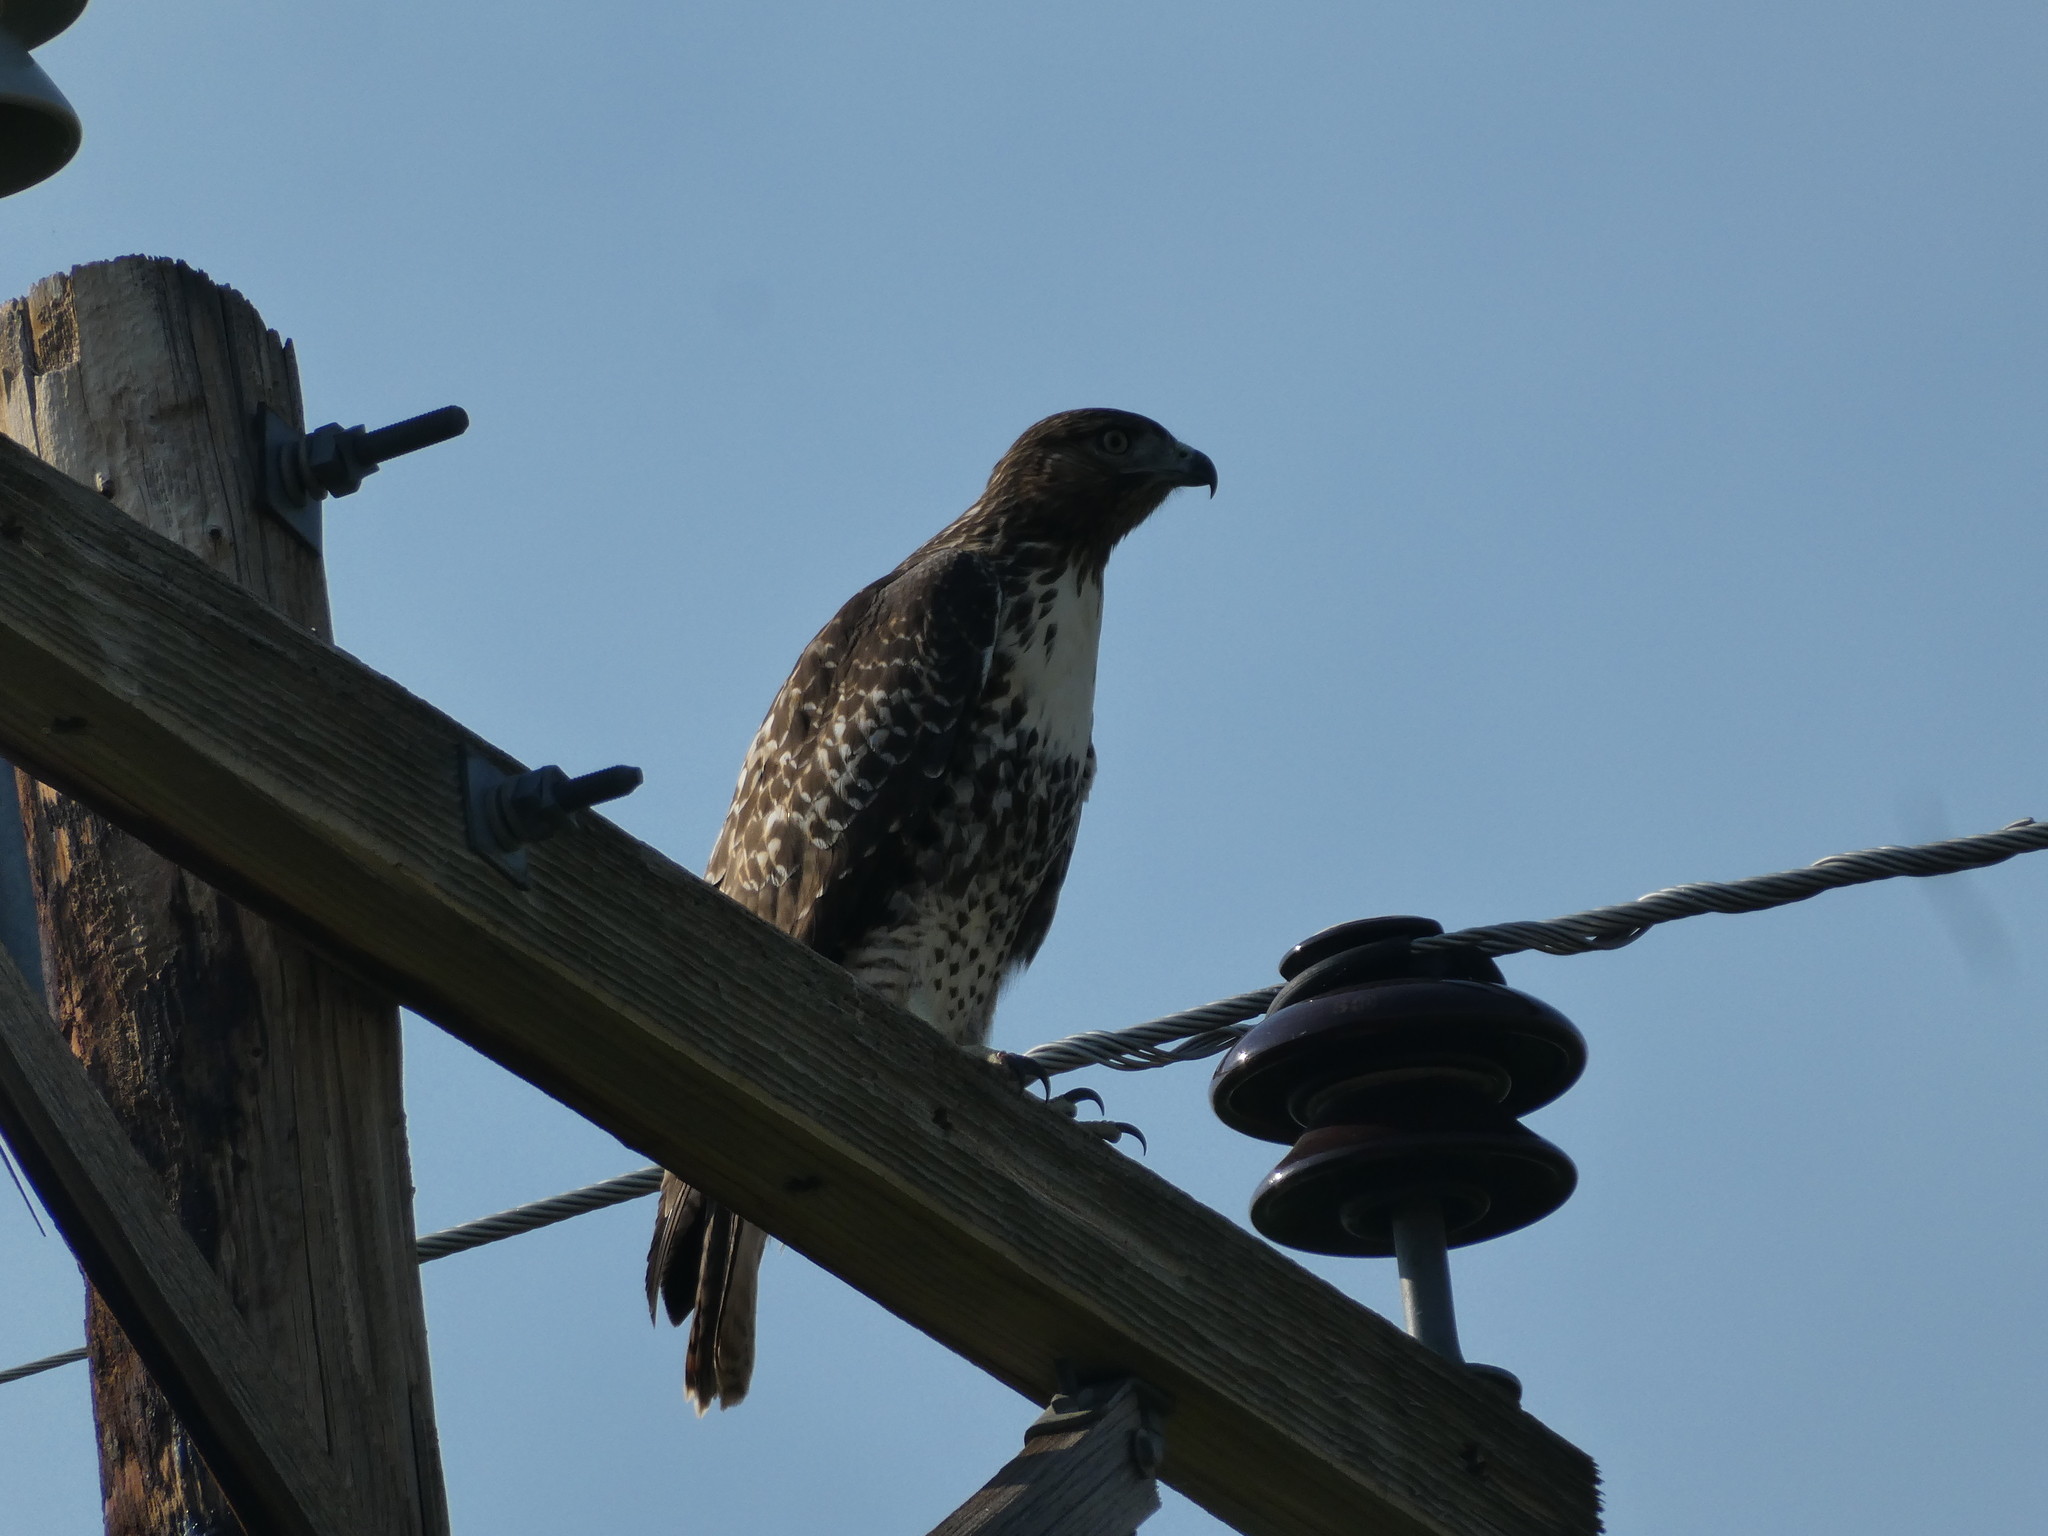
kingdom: Animalia
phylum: Chordata
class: Aves
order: Accipitriformes
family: Accipitridae
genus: Buteo
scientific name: Buteo jamaicensis
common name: Red-tailed hawk
